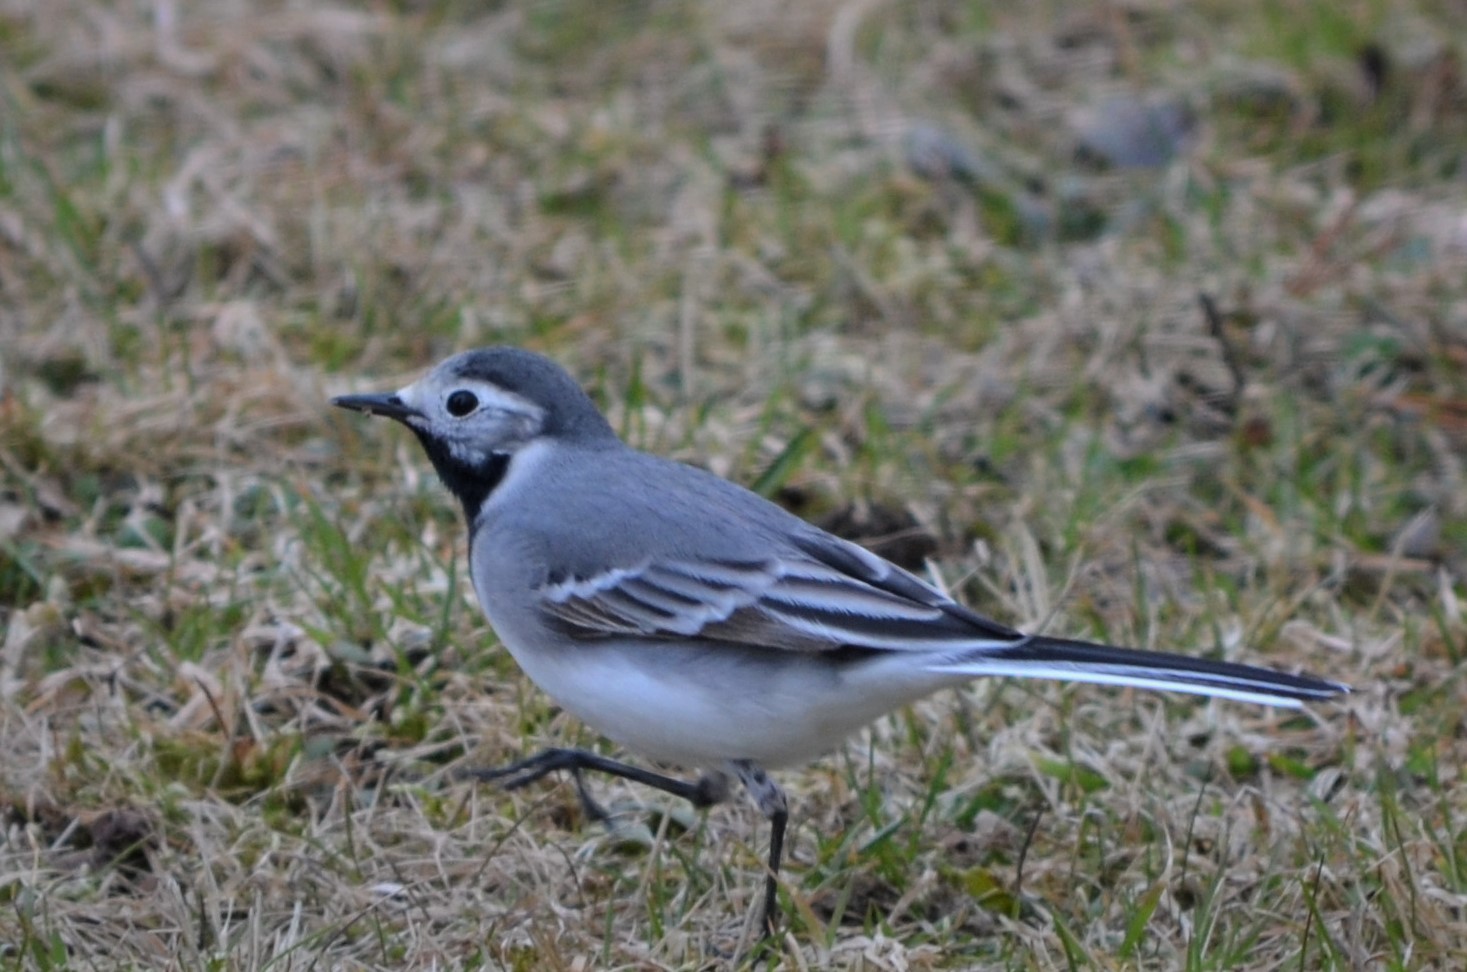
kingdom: Animalia
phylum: Chordata
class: Aves
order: Passeriformes
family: Motacillidae
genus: Motacilla
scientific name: Motacilla alba
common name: White wagtail
